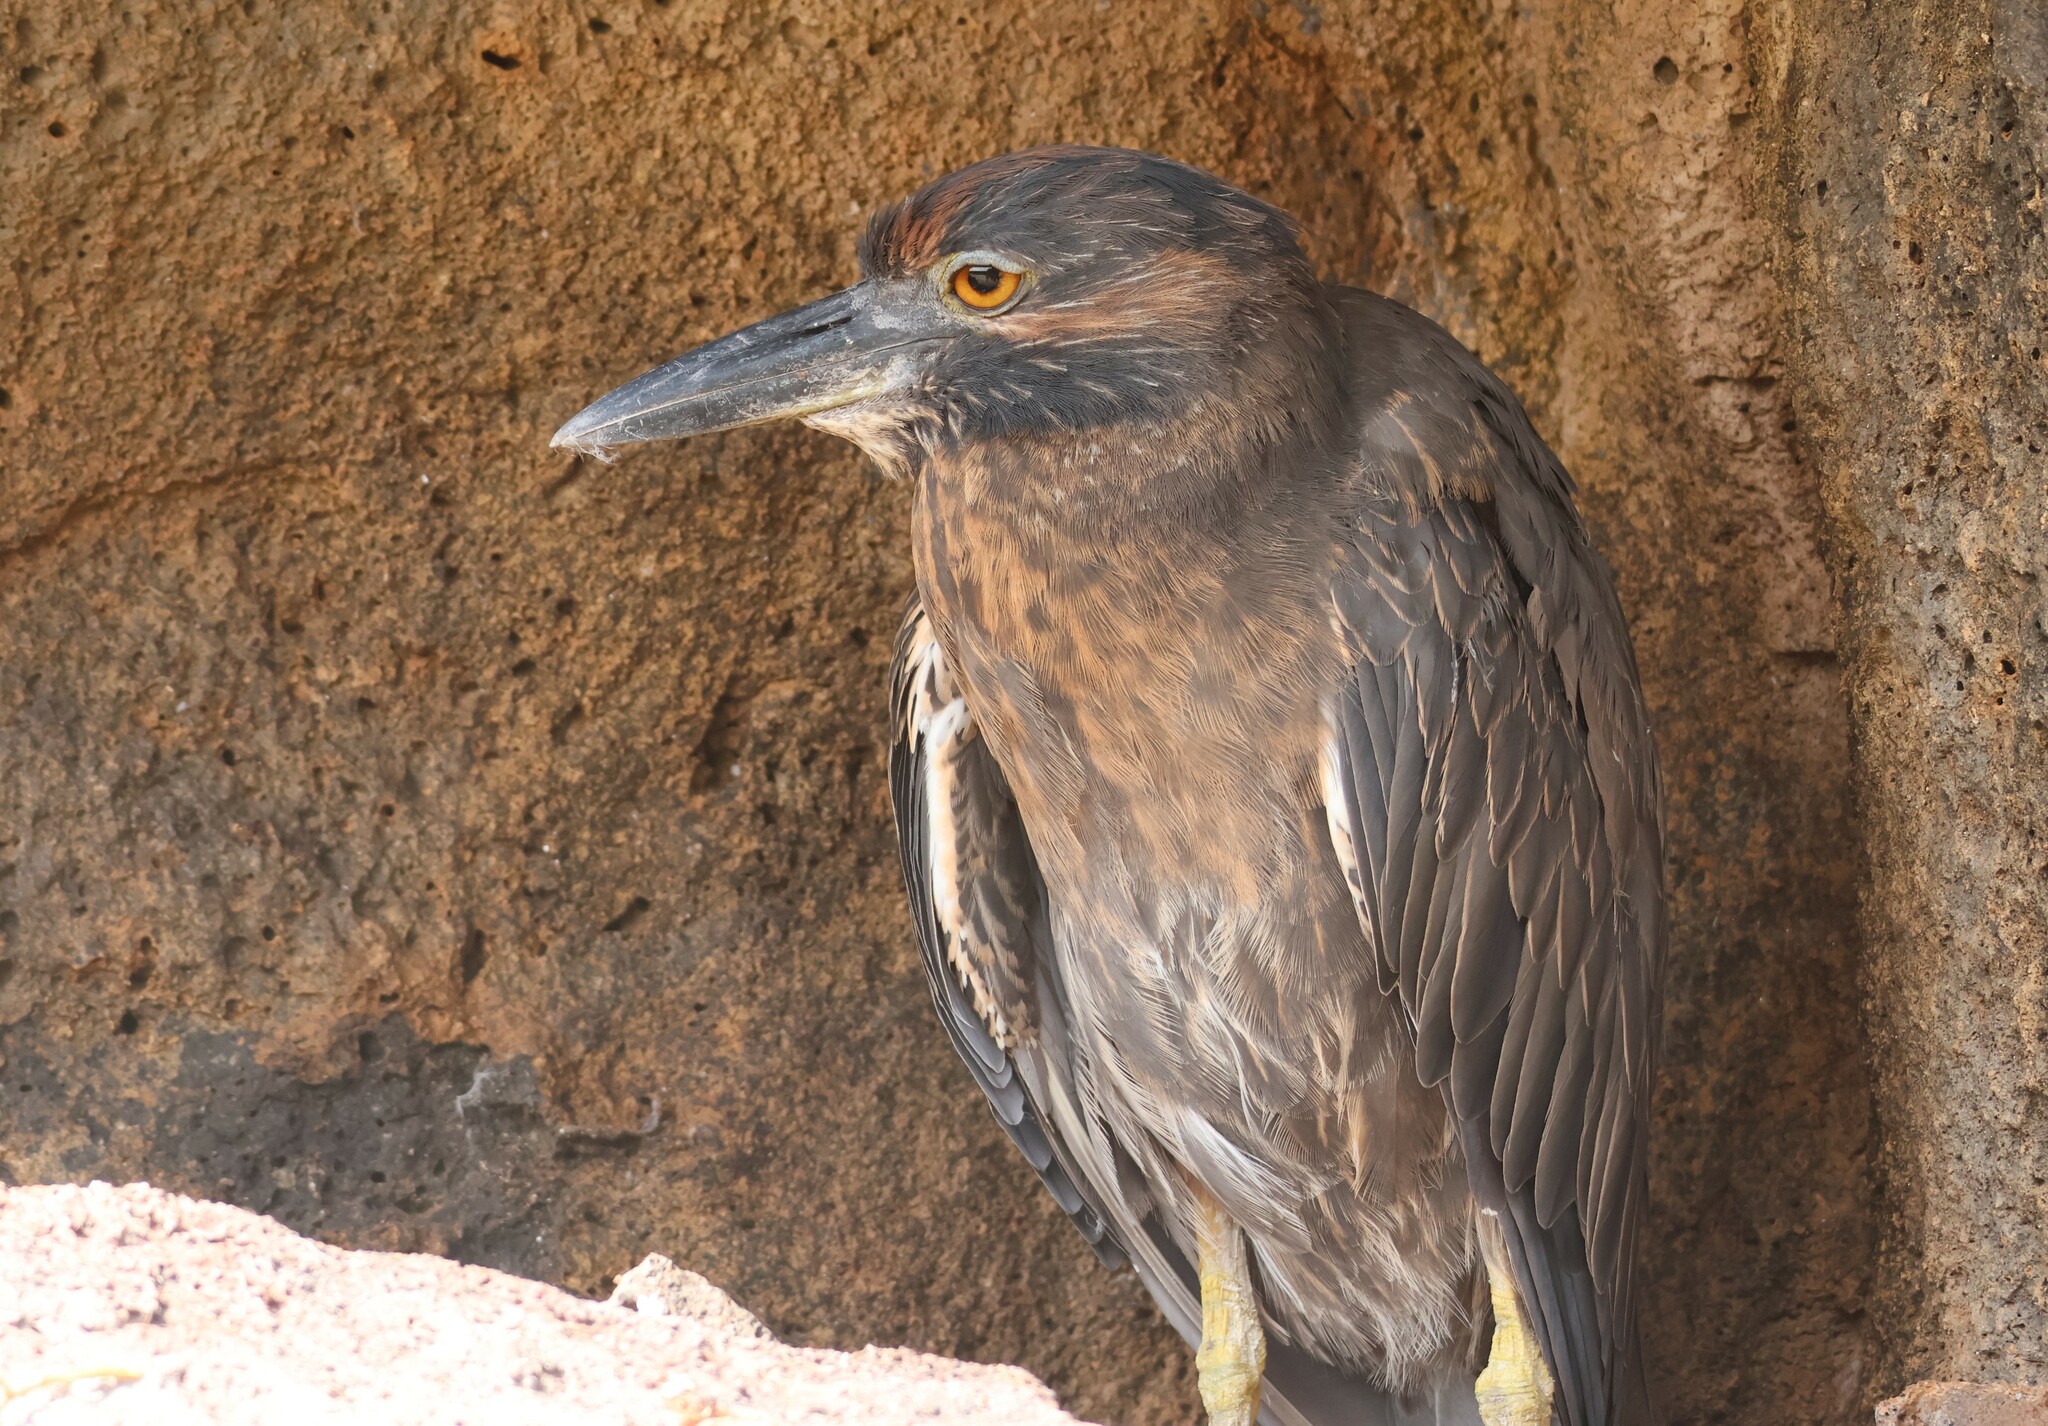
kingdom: Animalia
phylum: Chordata
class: Aves
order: Pelecaniformes
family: Ardeidae
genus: Nyctanassa
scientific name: Nyctanassa violacea
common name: Yellow-crowned night heron
